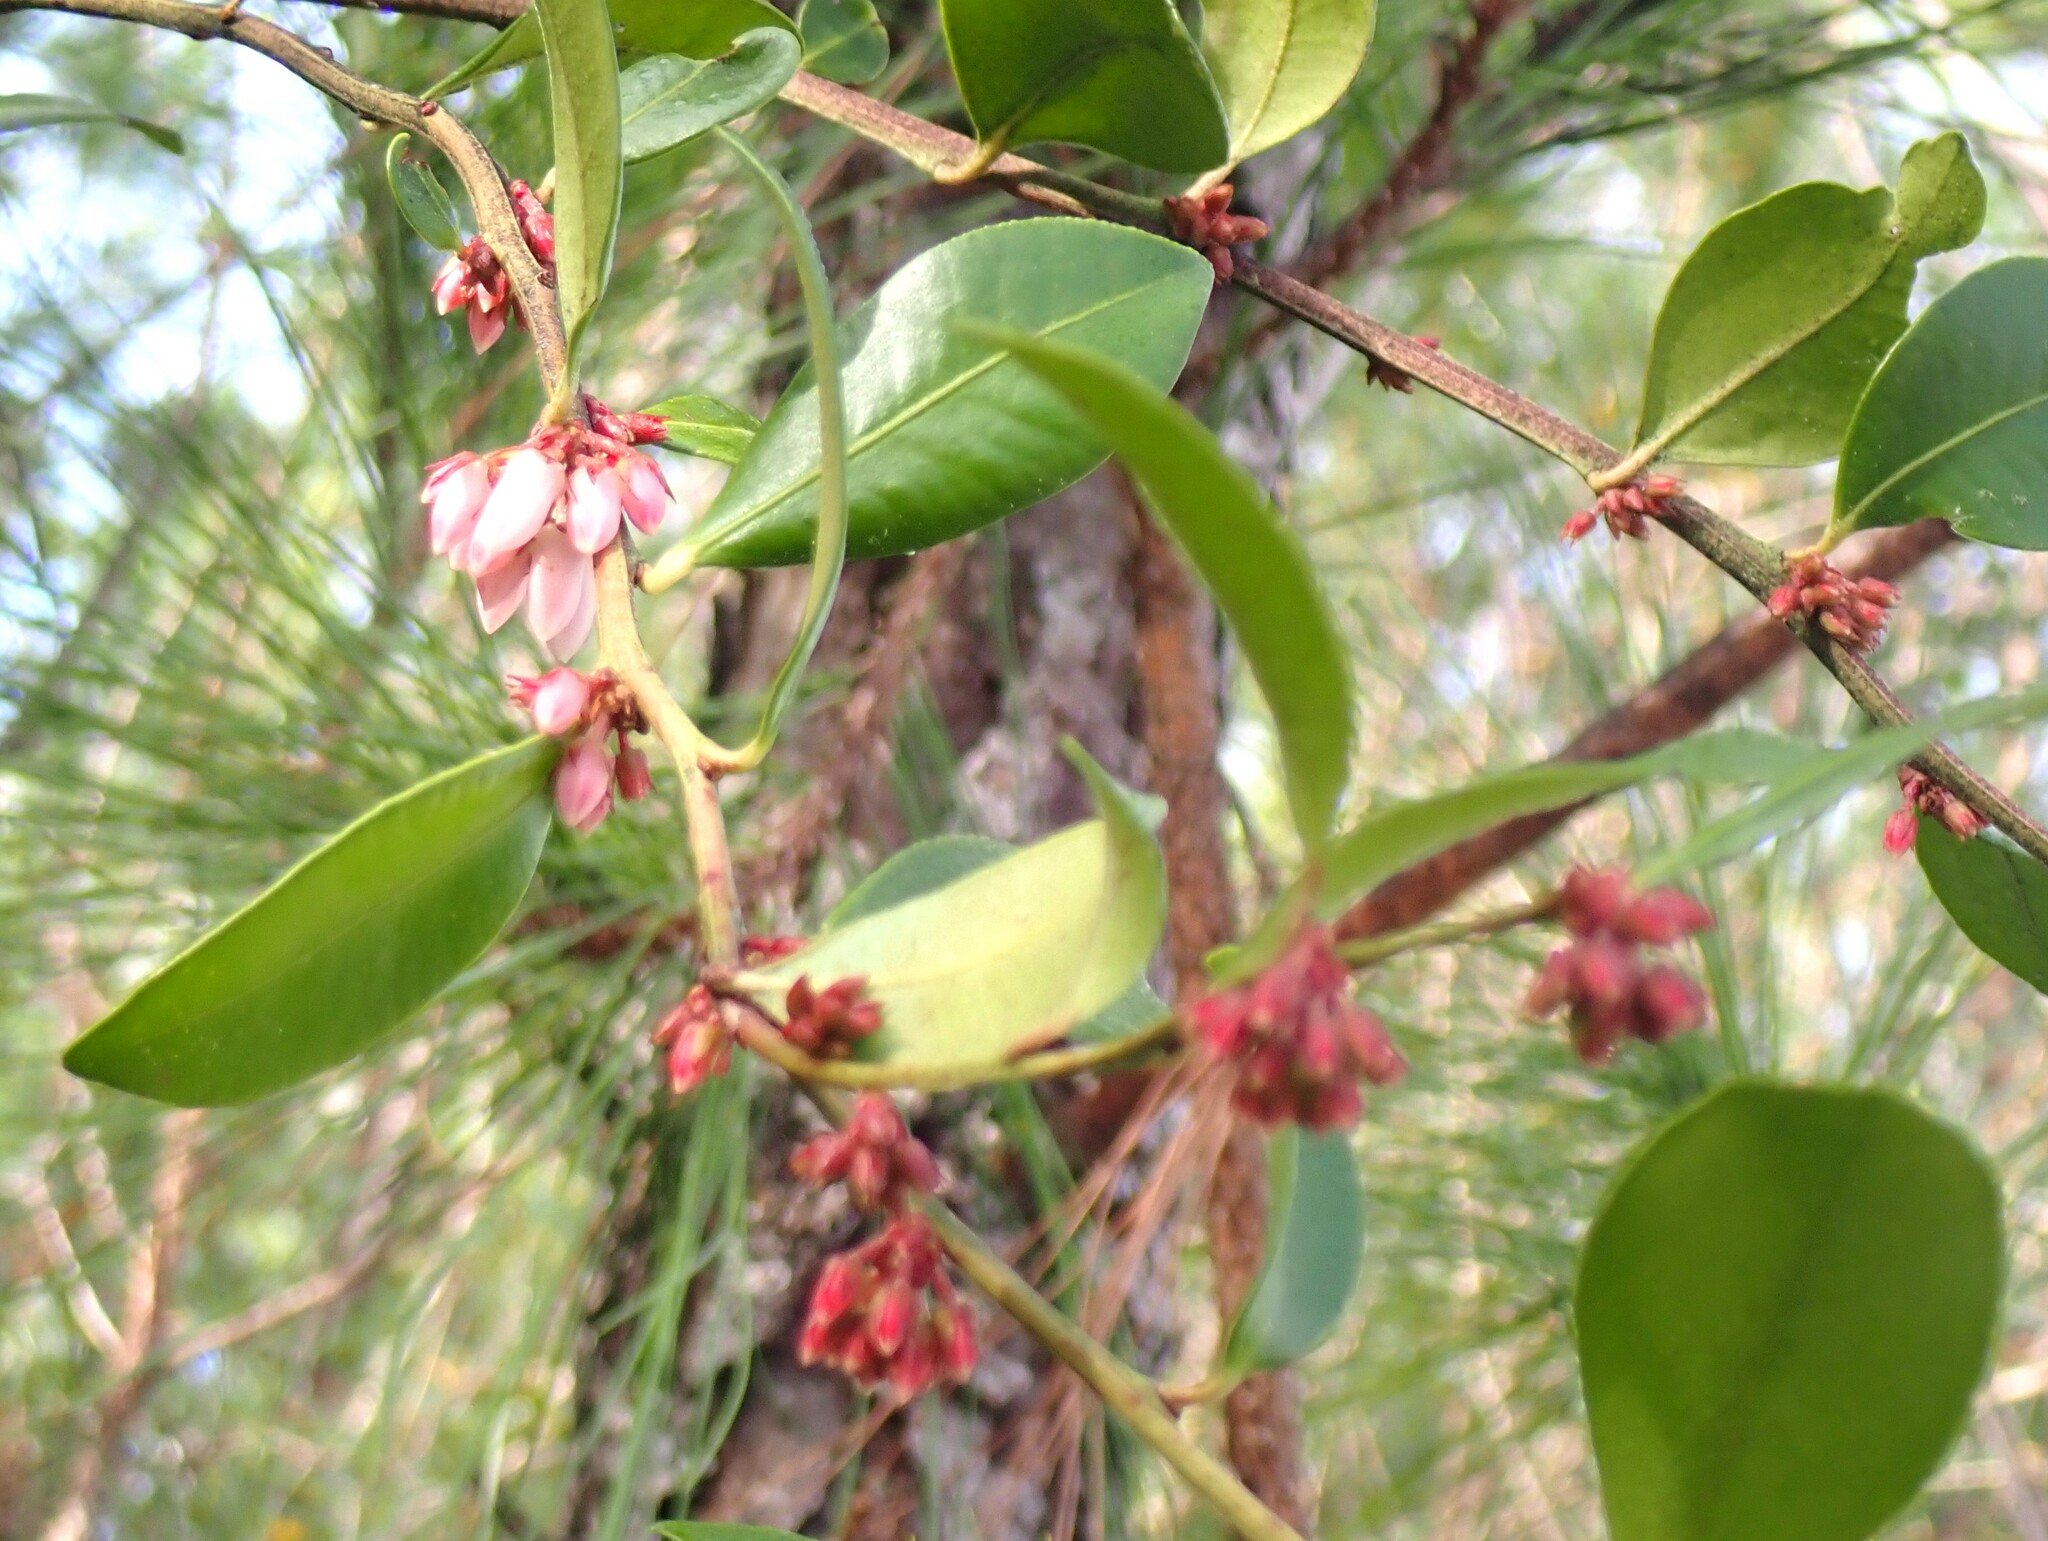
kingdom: Plantae
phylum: Tracheophyta
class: Magnoliopsida
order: Ericales
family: Ericaceae
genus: Lyonia
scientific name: Lyonia lucida
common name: Fetterbush
